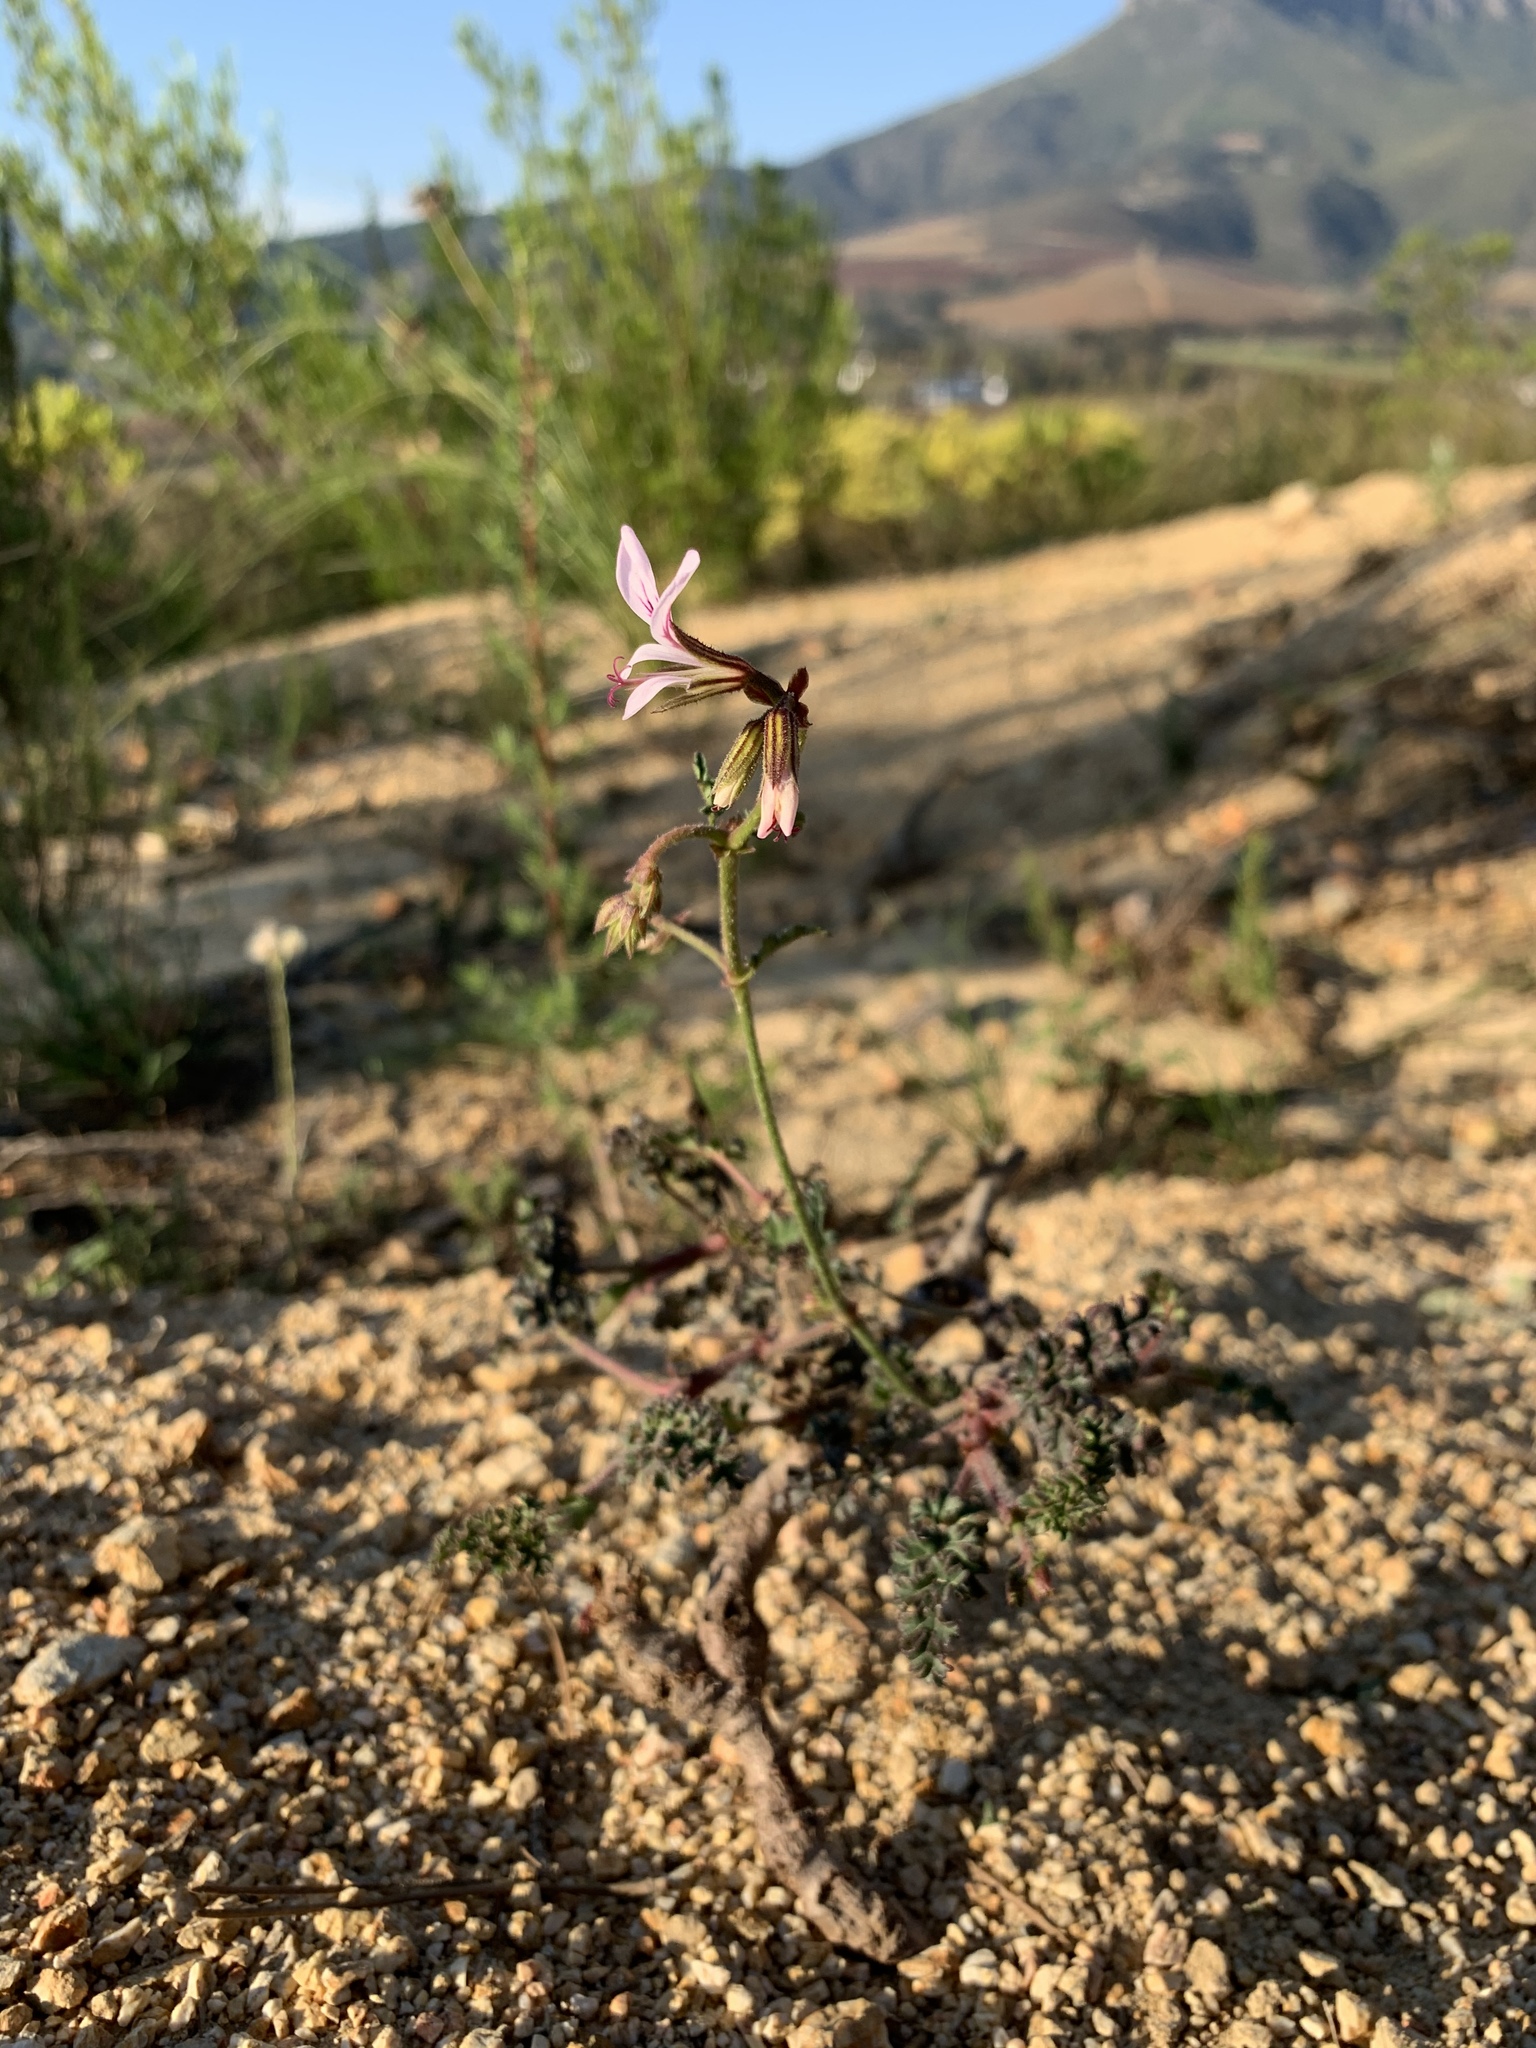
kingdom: Plantae
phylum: Tracheophyta
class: Magnoliopsida
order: Geraniales
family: Geraniaceae
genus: Pelargonium
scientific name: Pelargonium myrrhifolium
